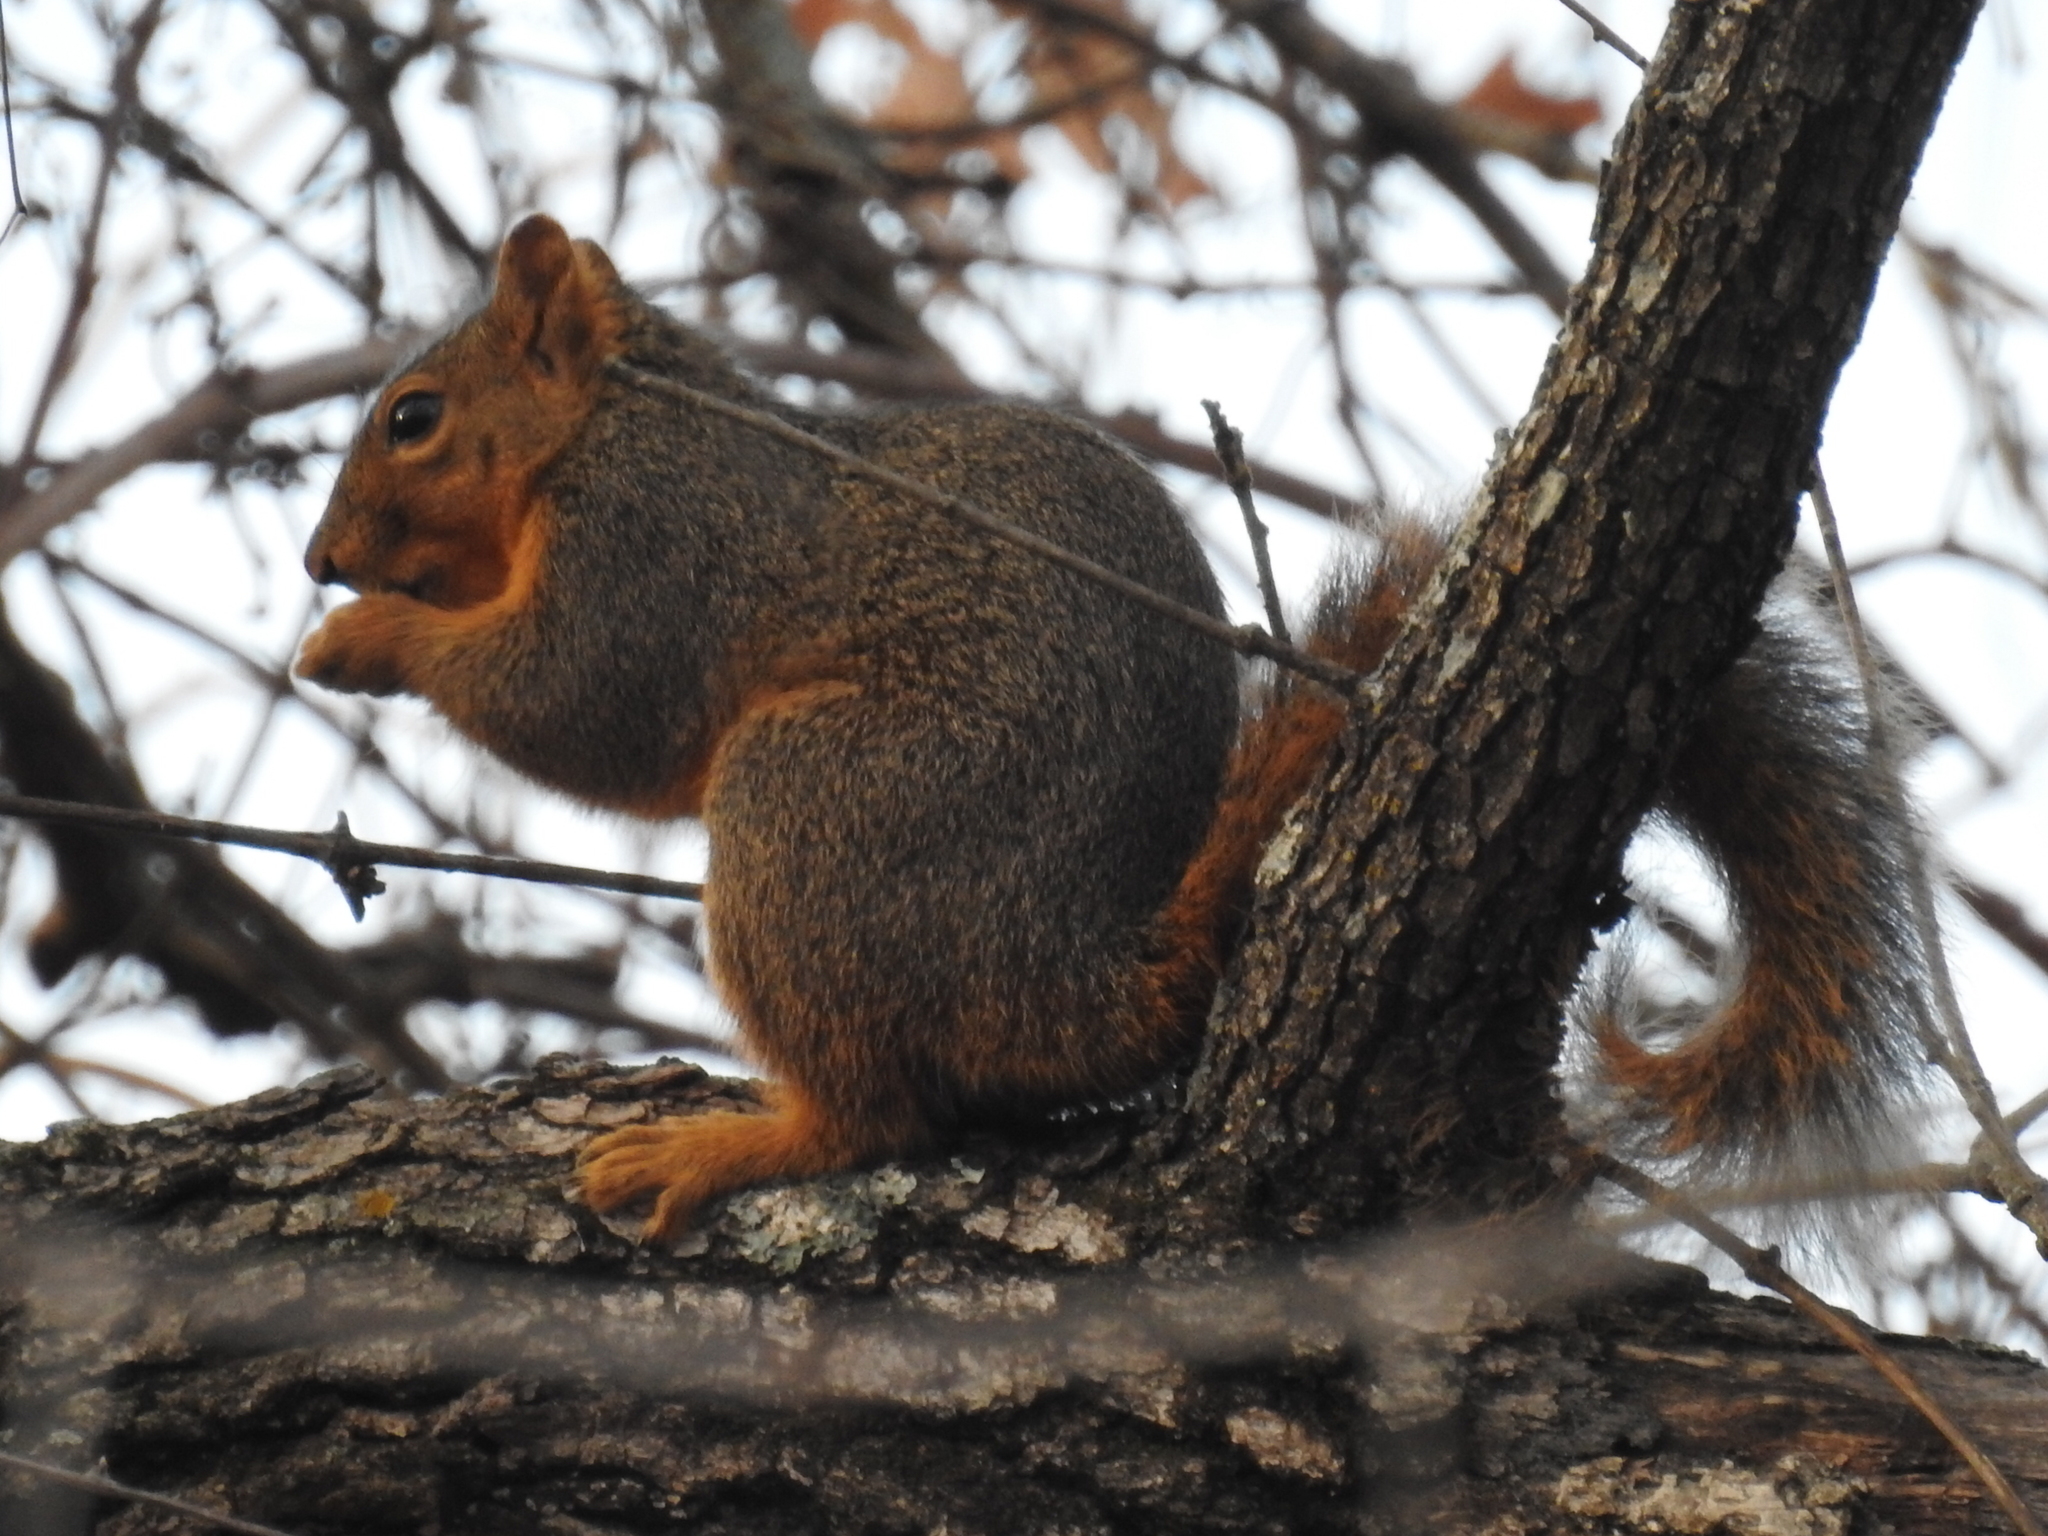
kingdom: Animalia
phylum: Chordata
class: Mammalia
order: Rodentia
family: Sciuridae
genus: Sciurus
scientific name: Sciurus niger
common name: Fox squirrel
